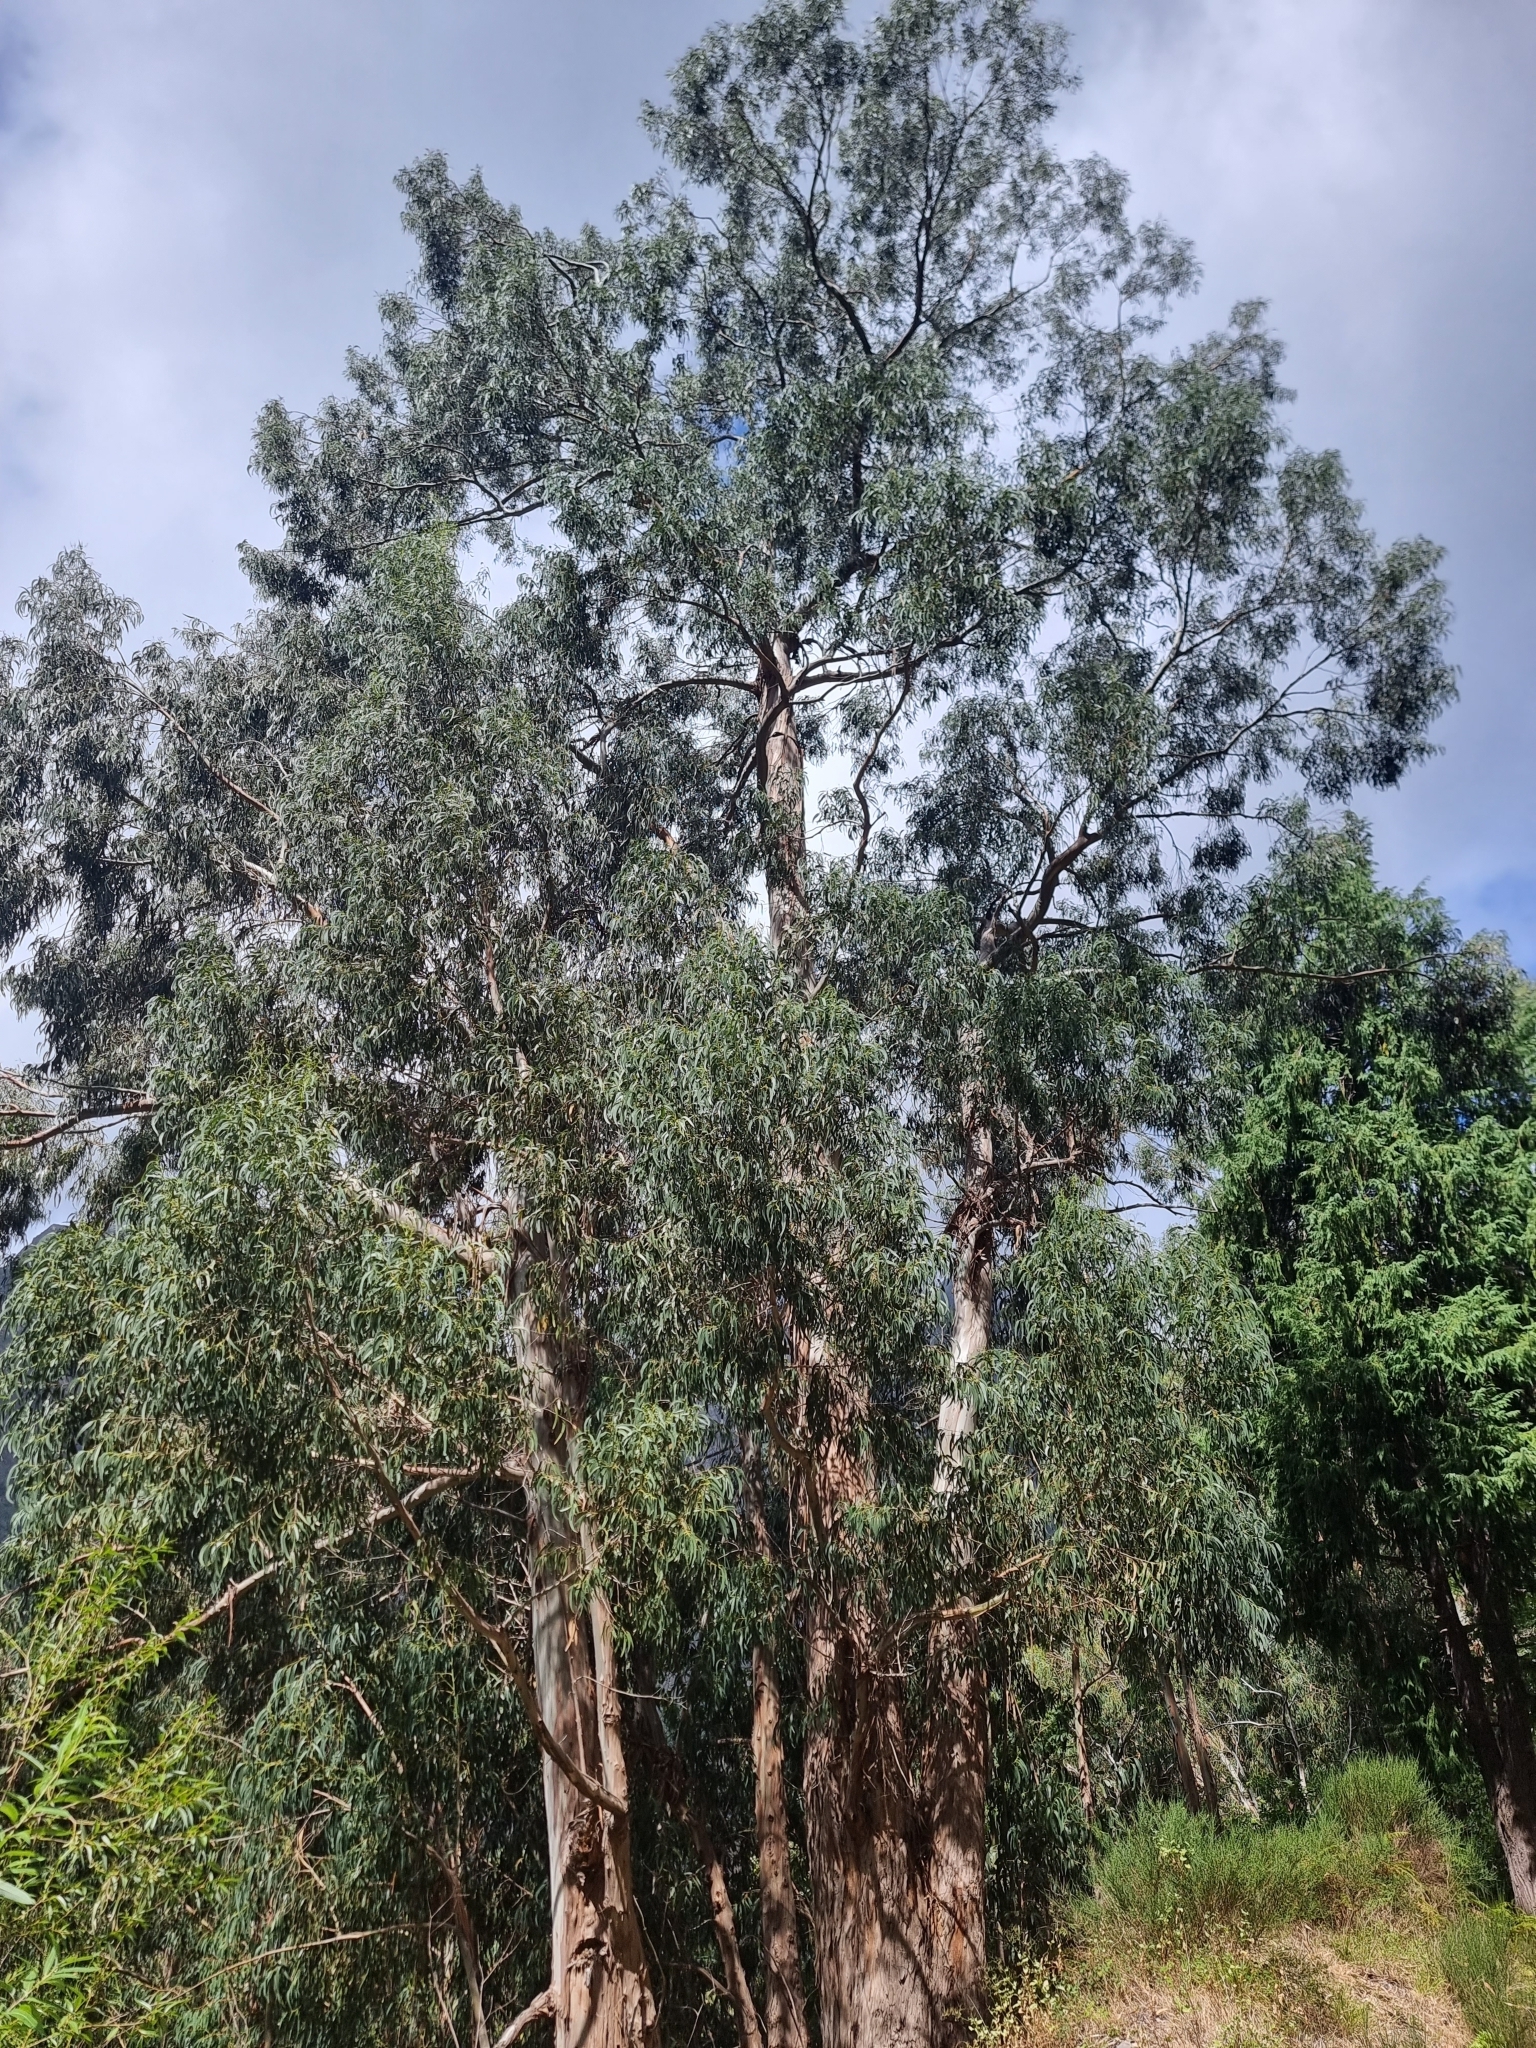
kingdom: Plantae
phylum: Tracheophyta
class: Magnoliopsida
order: Myrtales
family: Myrtaceae
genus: Eucalyptus
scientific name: Eucalyptus globulus
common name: Southern blue-gum
